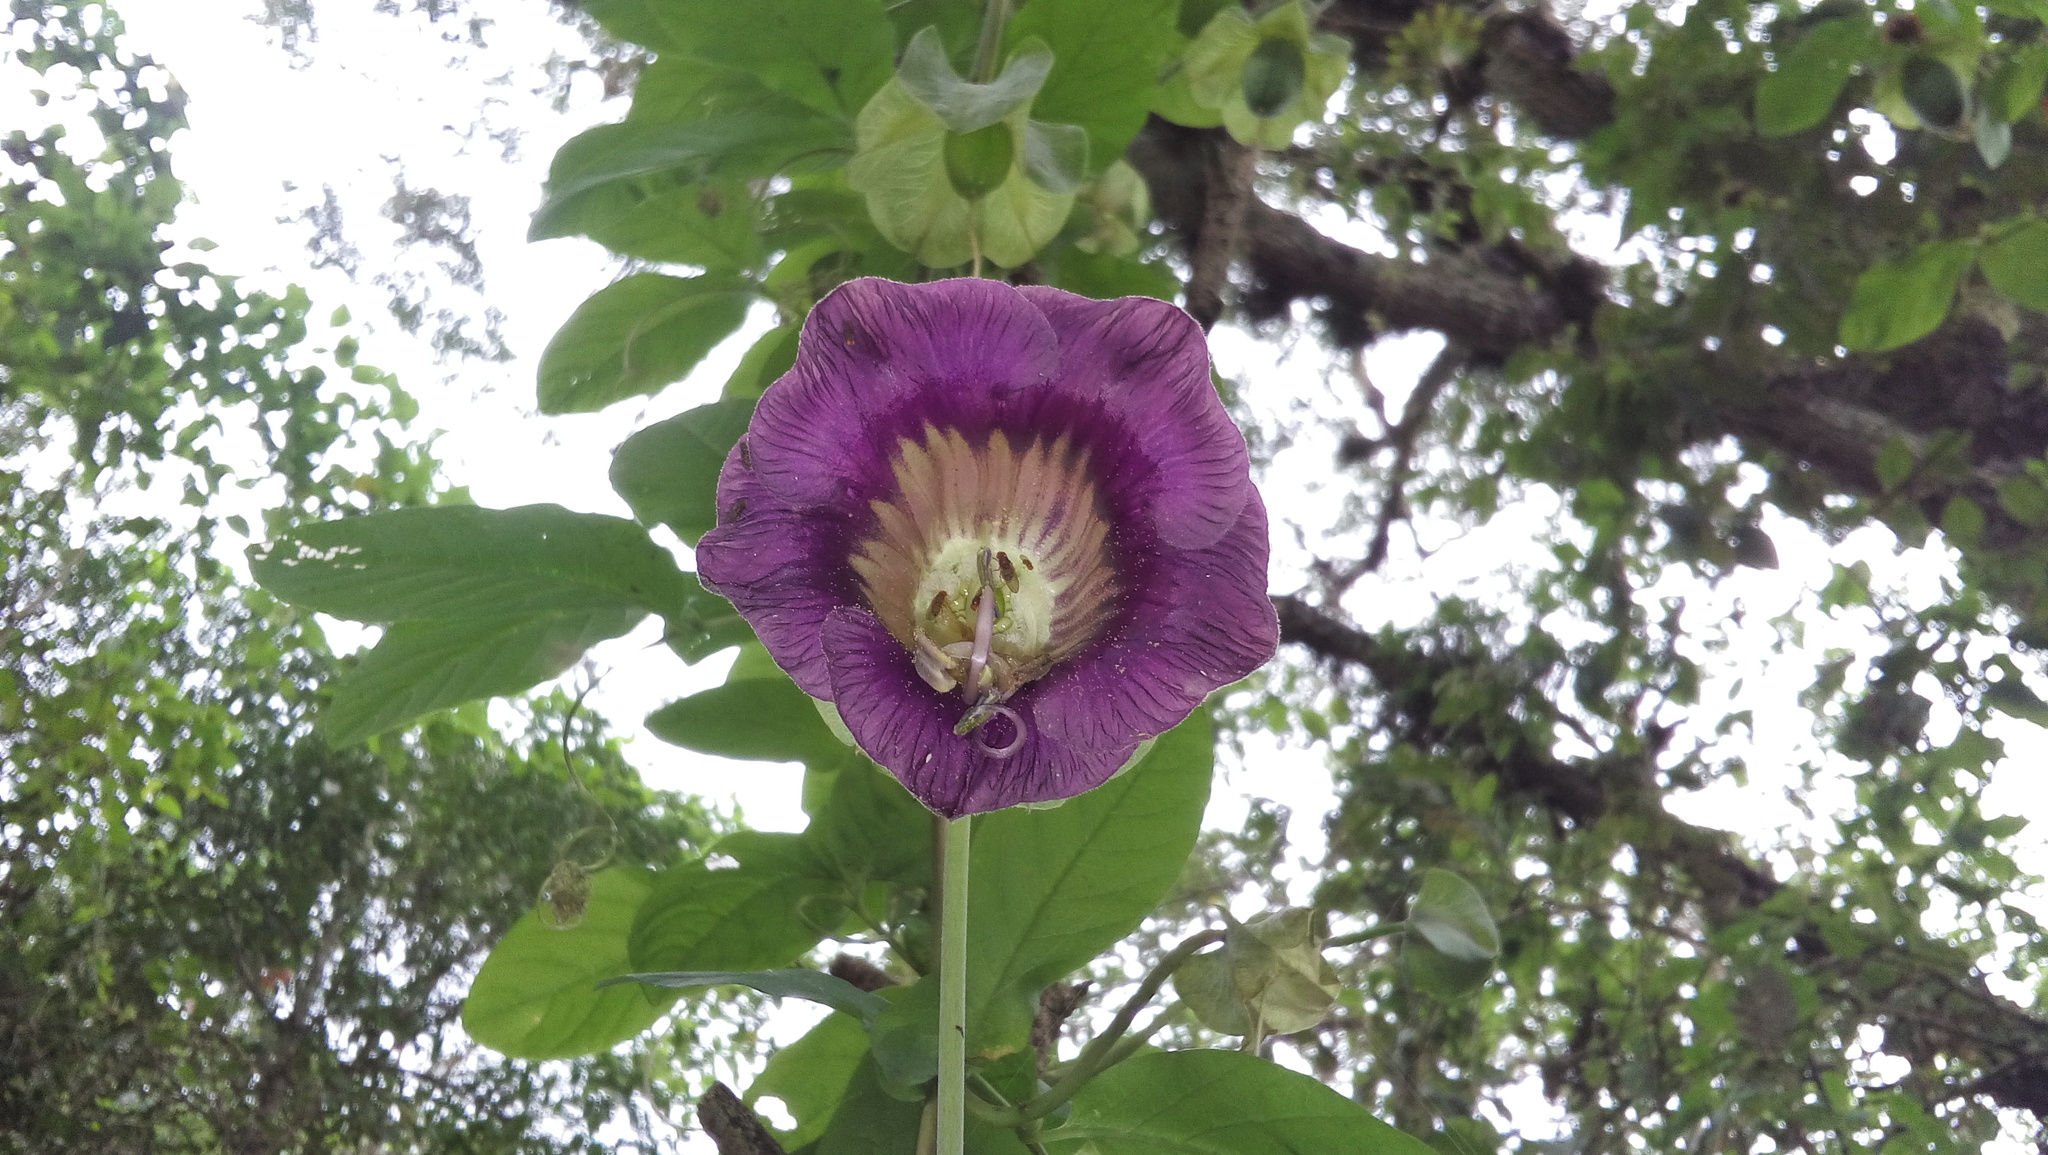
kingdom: Plantae
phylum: Tracheophyta
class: Magnoliopsida
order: Ericales
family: Polemoniaceae
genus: Cobaea
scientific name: Cobaea scandens
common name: Cup-and-saucer-vine
